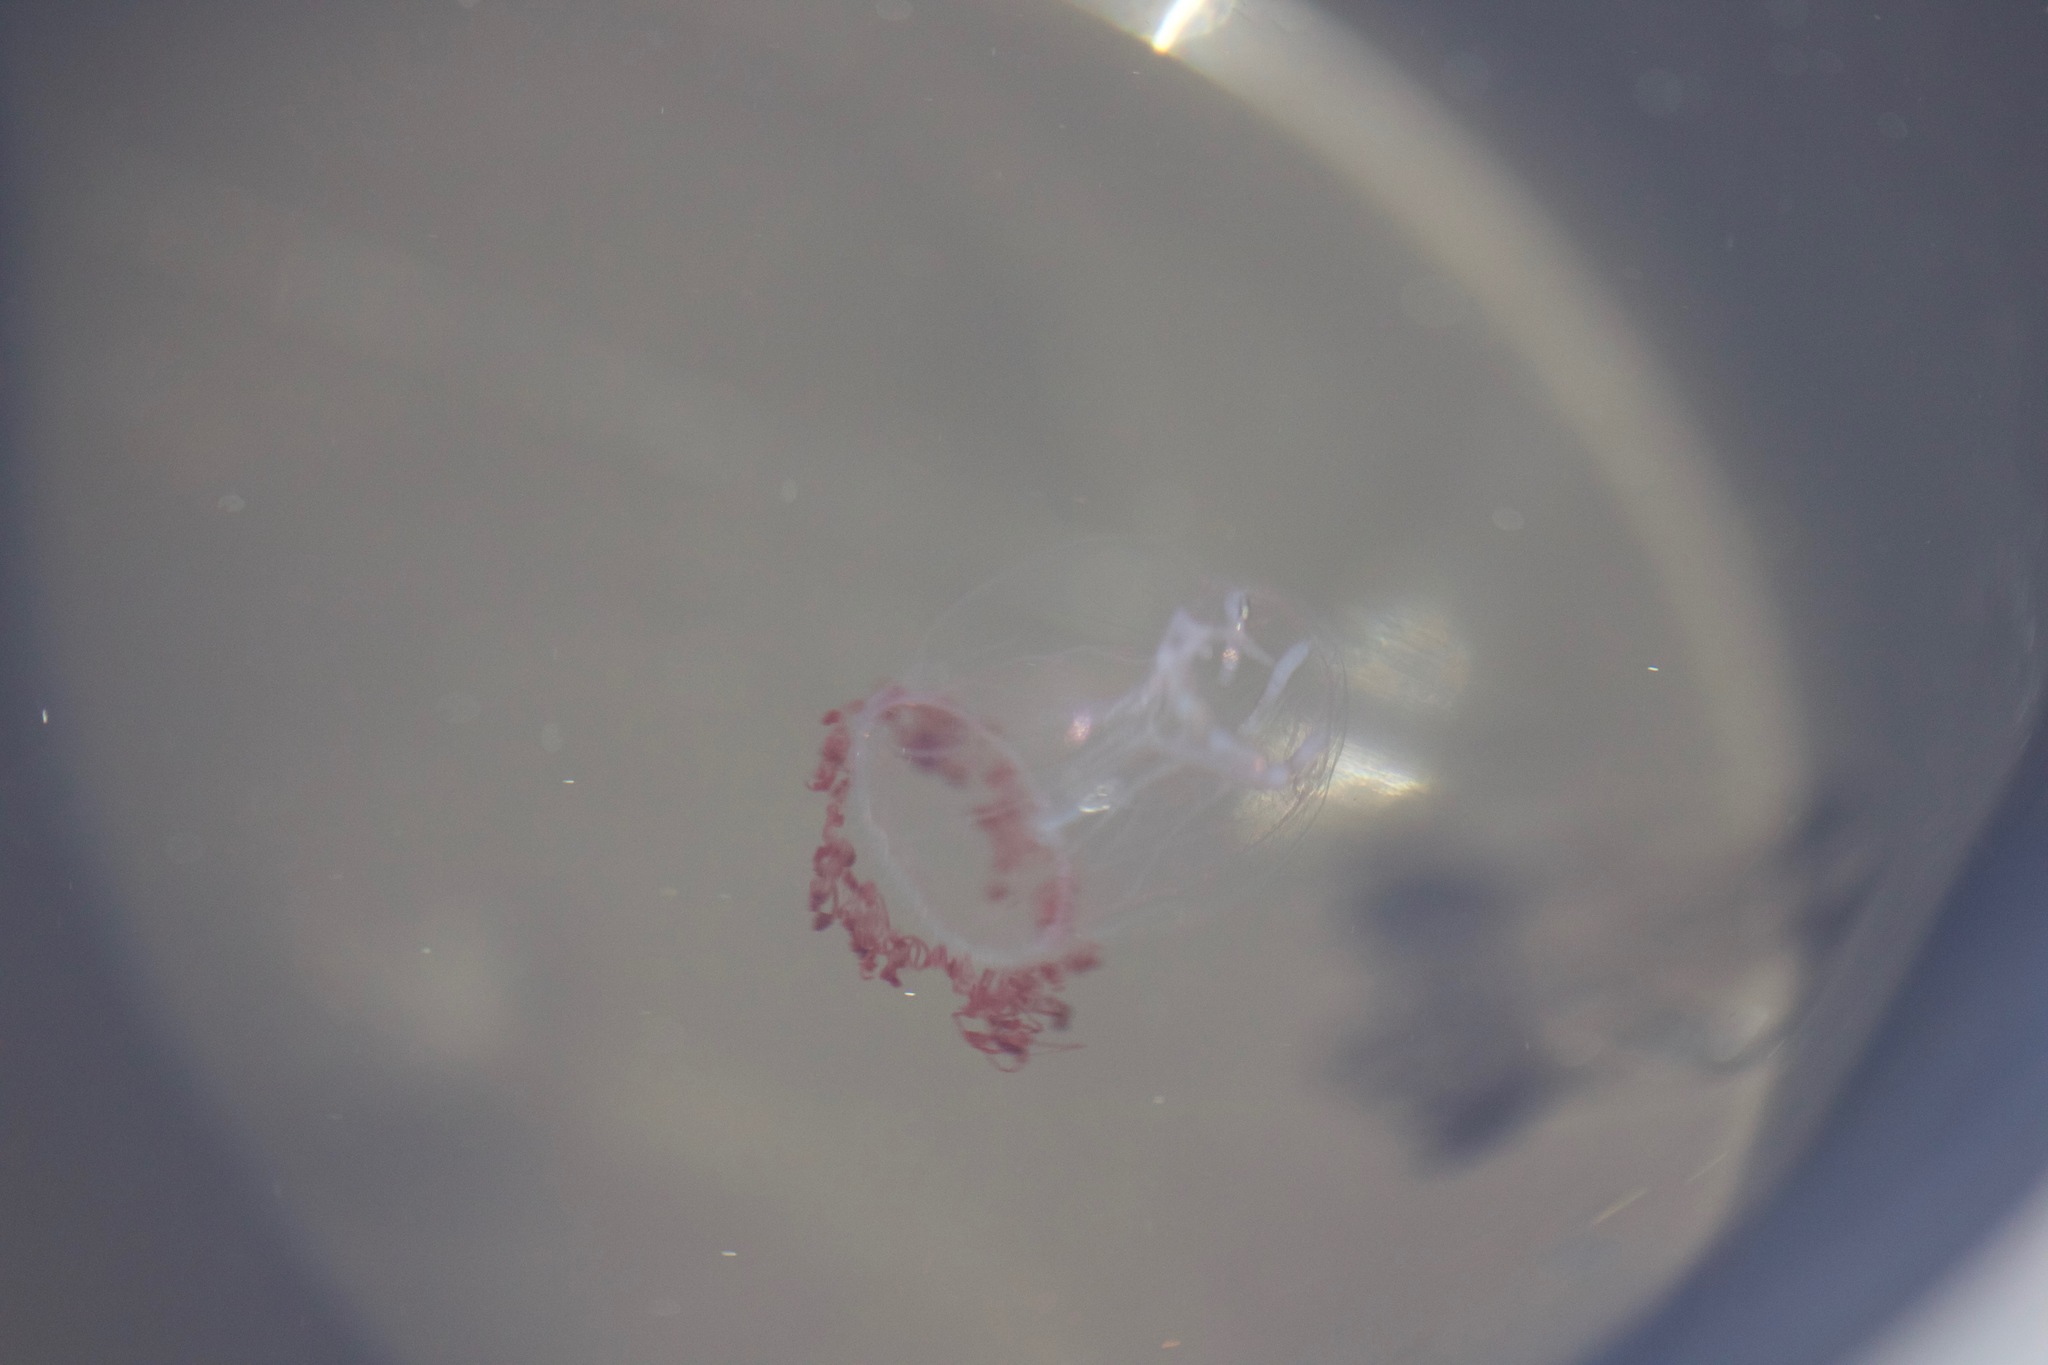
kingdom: Animalia
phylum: Cnidaria
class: Hydrozoa
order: Trachymedusae
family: Rhopalonematidae
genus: Aglantha
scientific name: Aglantha digitale
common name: Pink helmet
